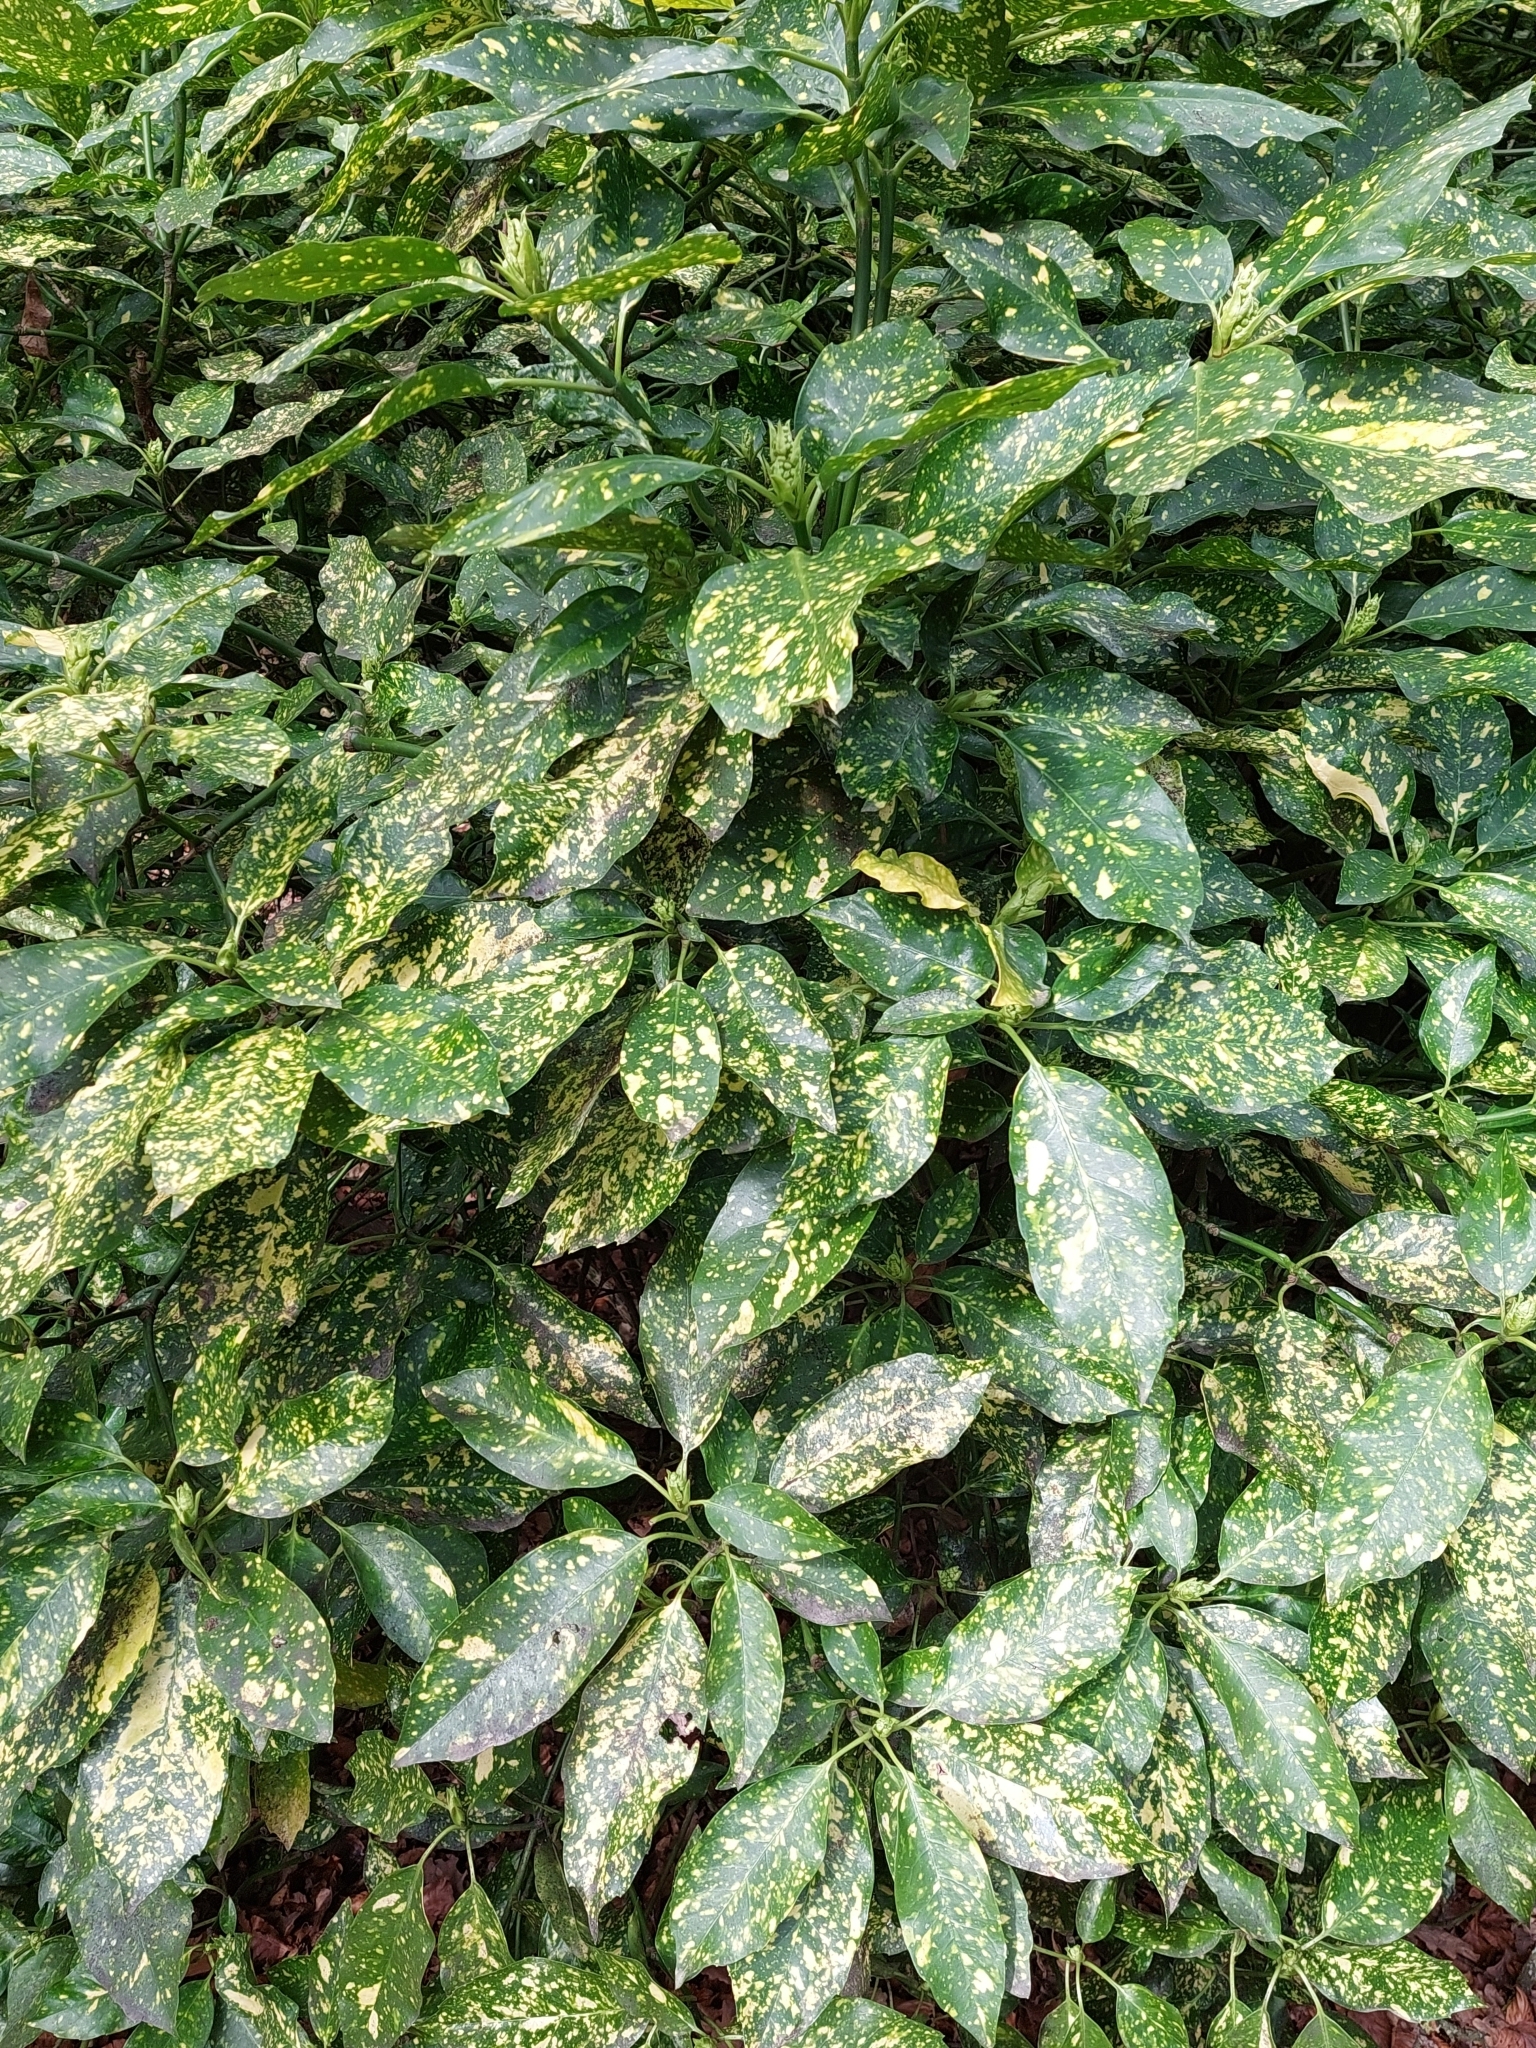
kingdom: Plantae
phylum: Tracheophyta
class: Magnoliopsida
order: Garryales
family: Garryaceae
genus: Aucuba
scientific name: Aucuba japonica
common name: Spotted-laurel
